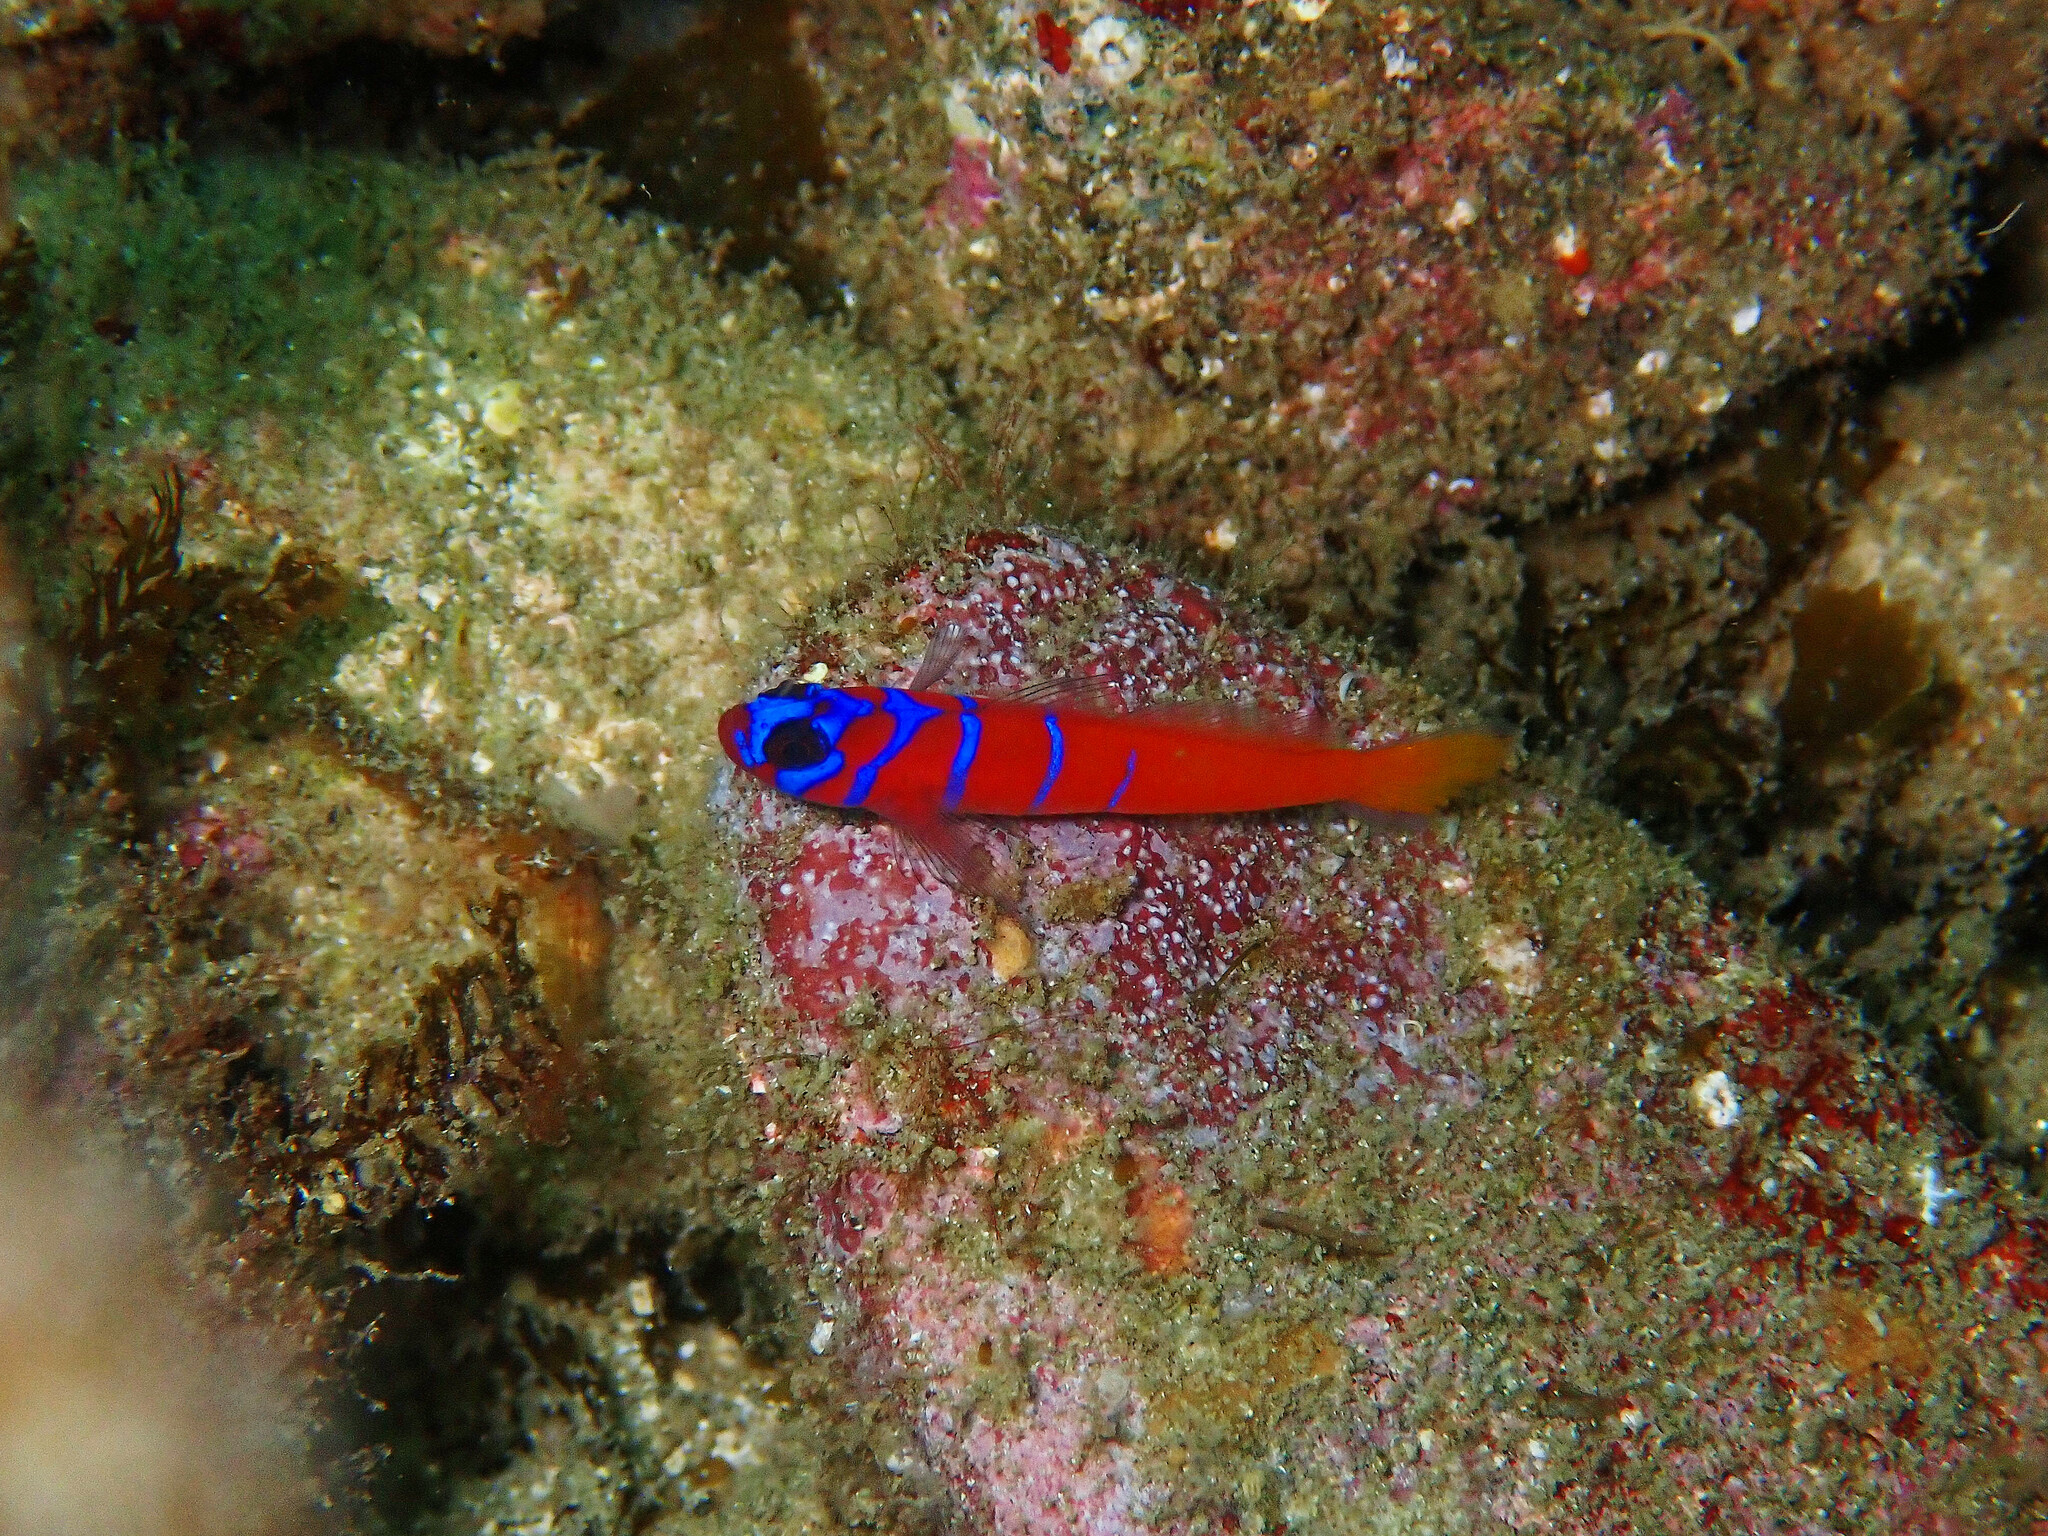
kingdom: Animalia
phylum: Chordata
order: Perciformes
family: Gobiidae
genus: Lythrypnus
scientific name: Lythrypnus dalli
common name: Bluebanded goby
